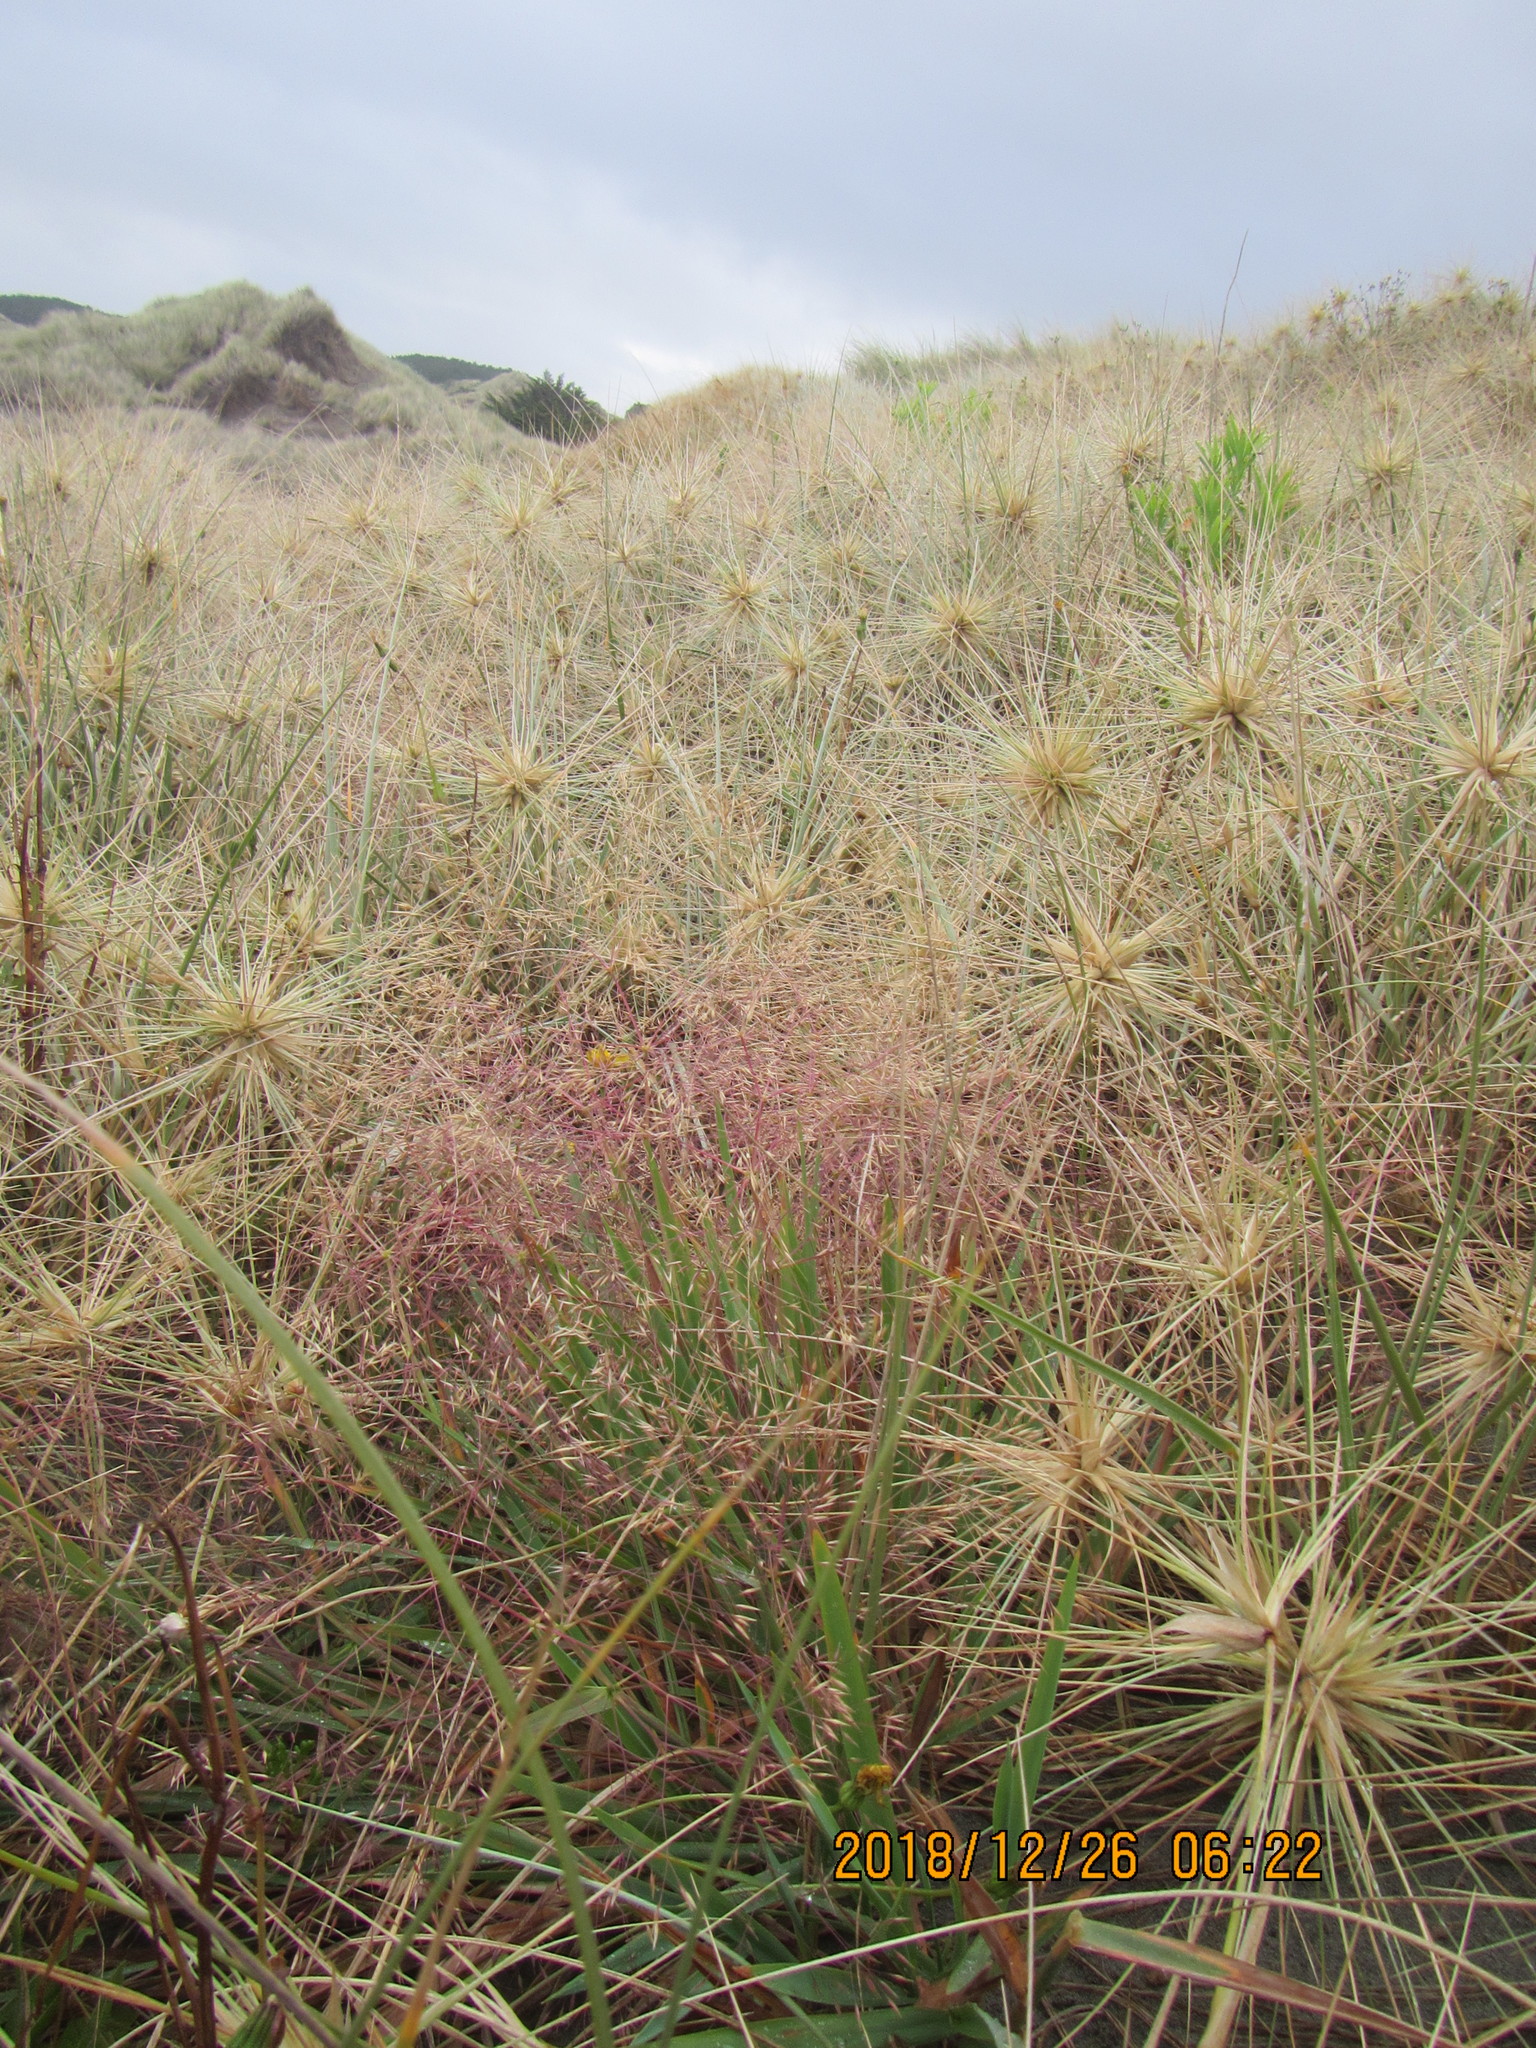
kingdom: Plantae
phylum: Tracheophyta
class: Liliopsida
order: Poales
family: Poaceae
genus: Lachnagrostis
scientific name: Lachnagrostis billardierei
